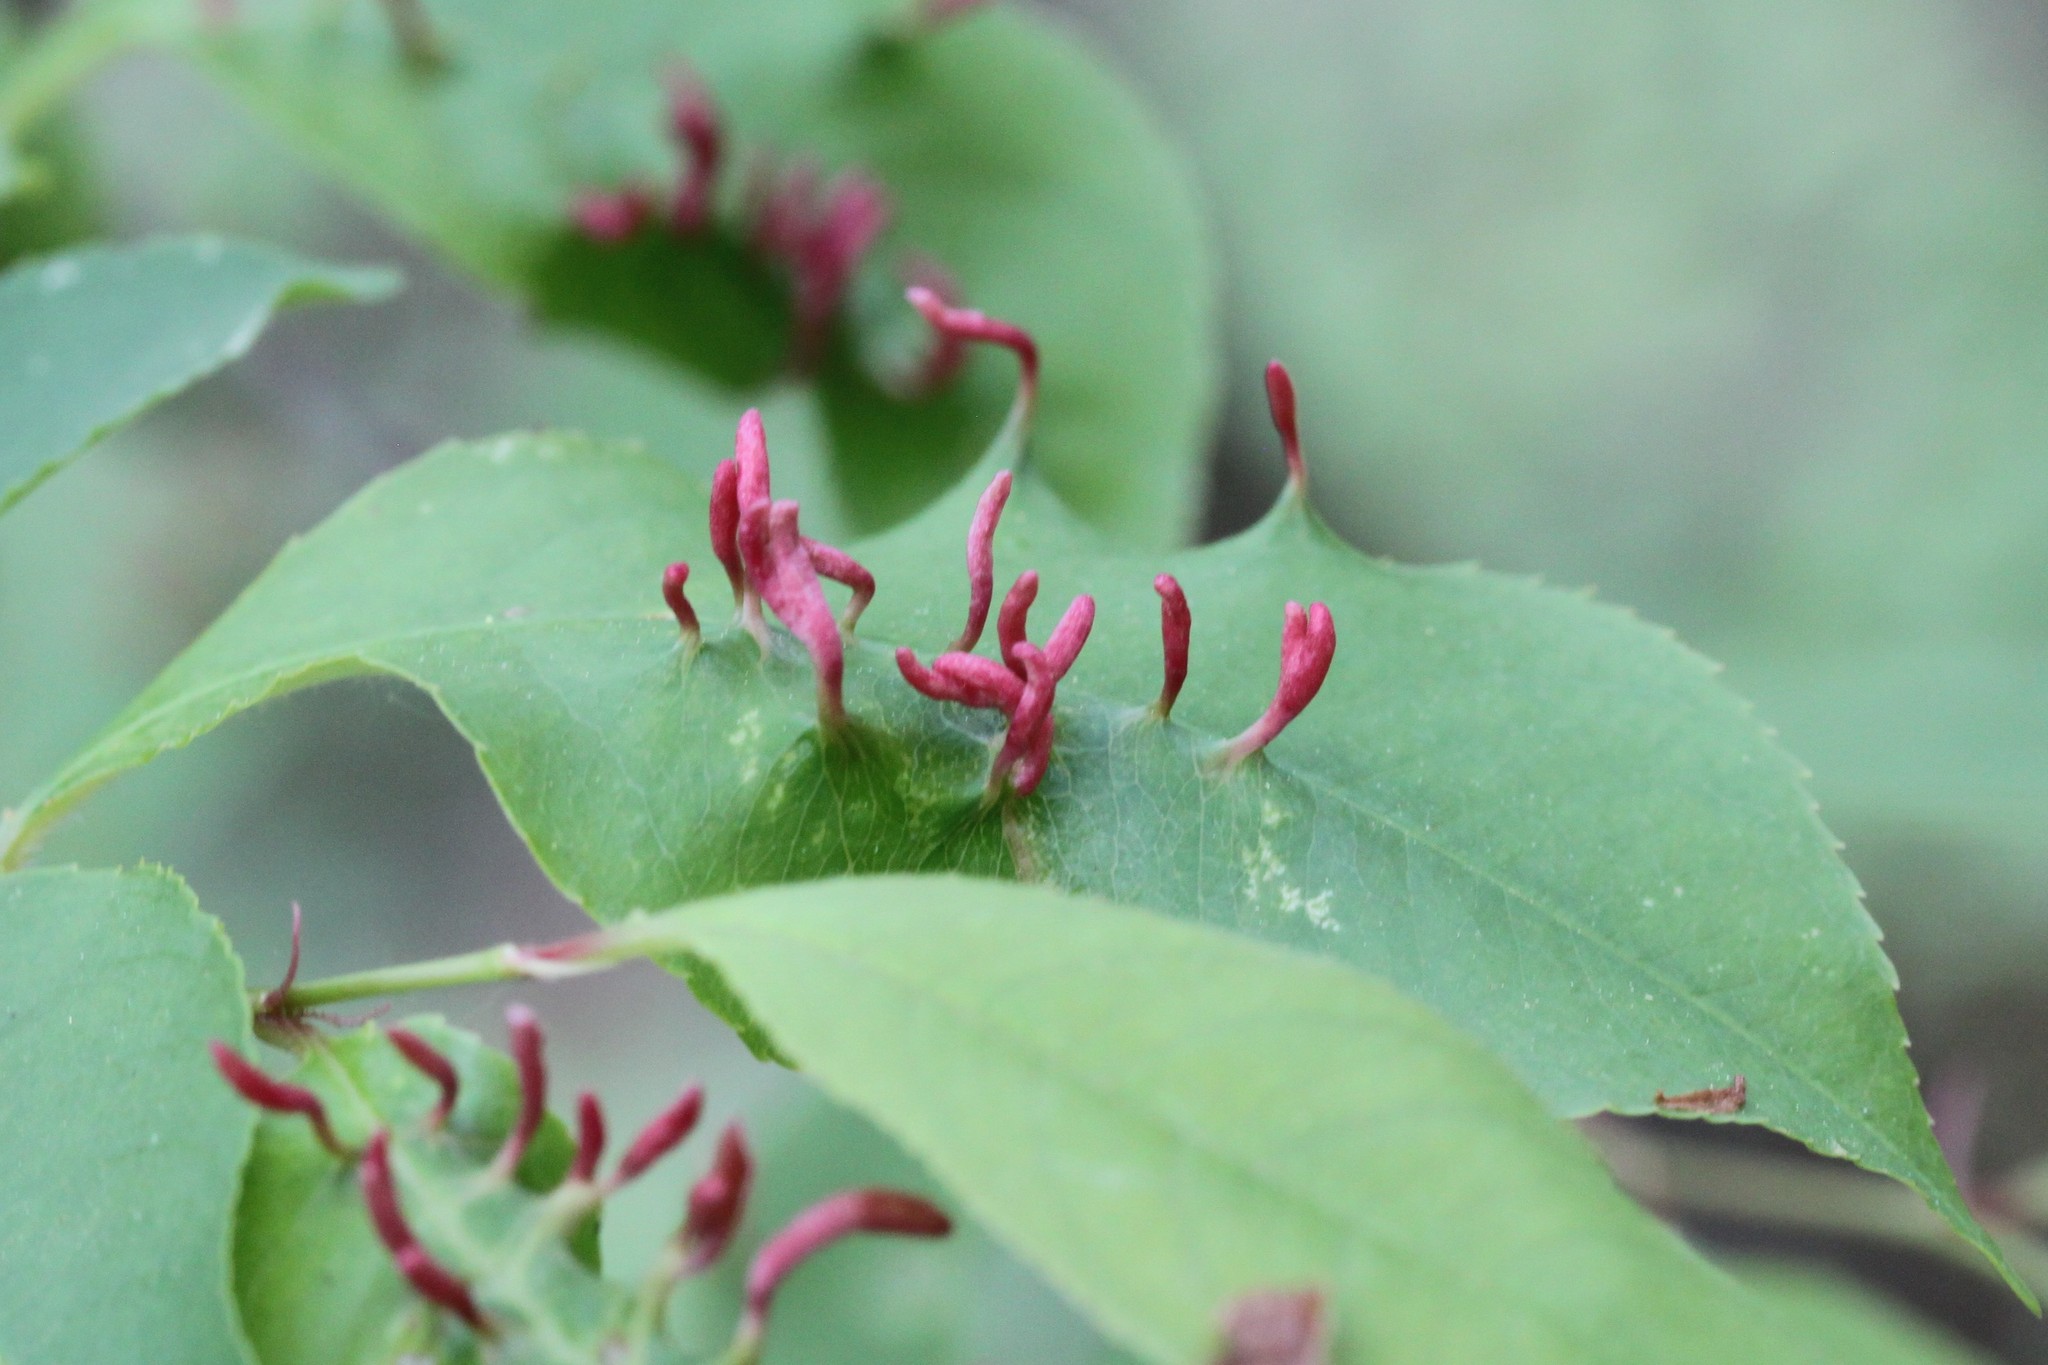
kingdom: Animalia
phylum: Arthropoda
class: Arachnida
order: Trombidiformes
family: Eriophyidae
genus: Eriophyes
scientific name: Eriophyes
